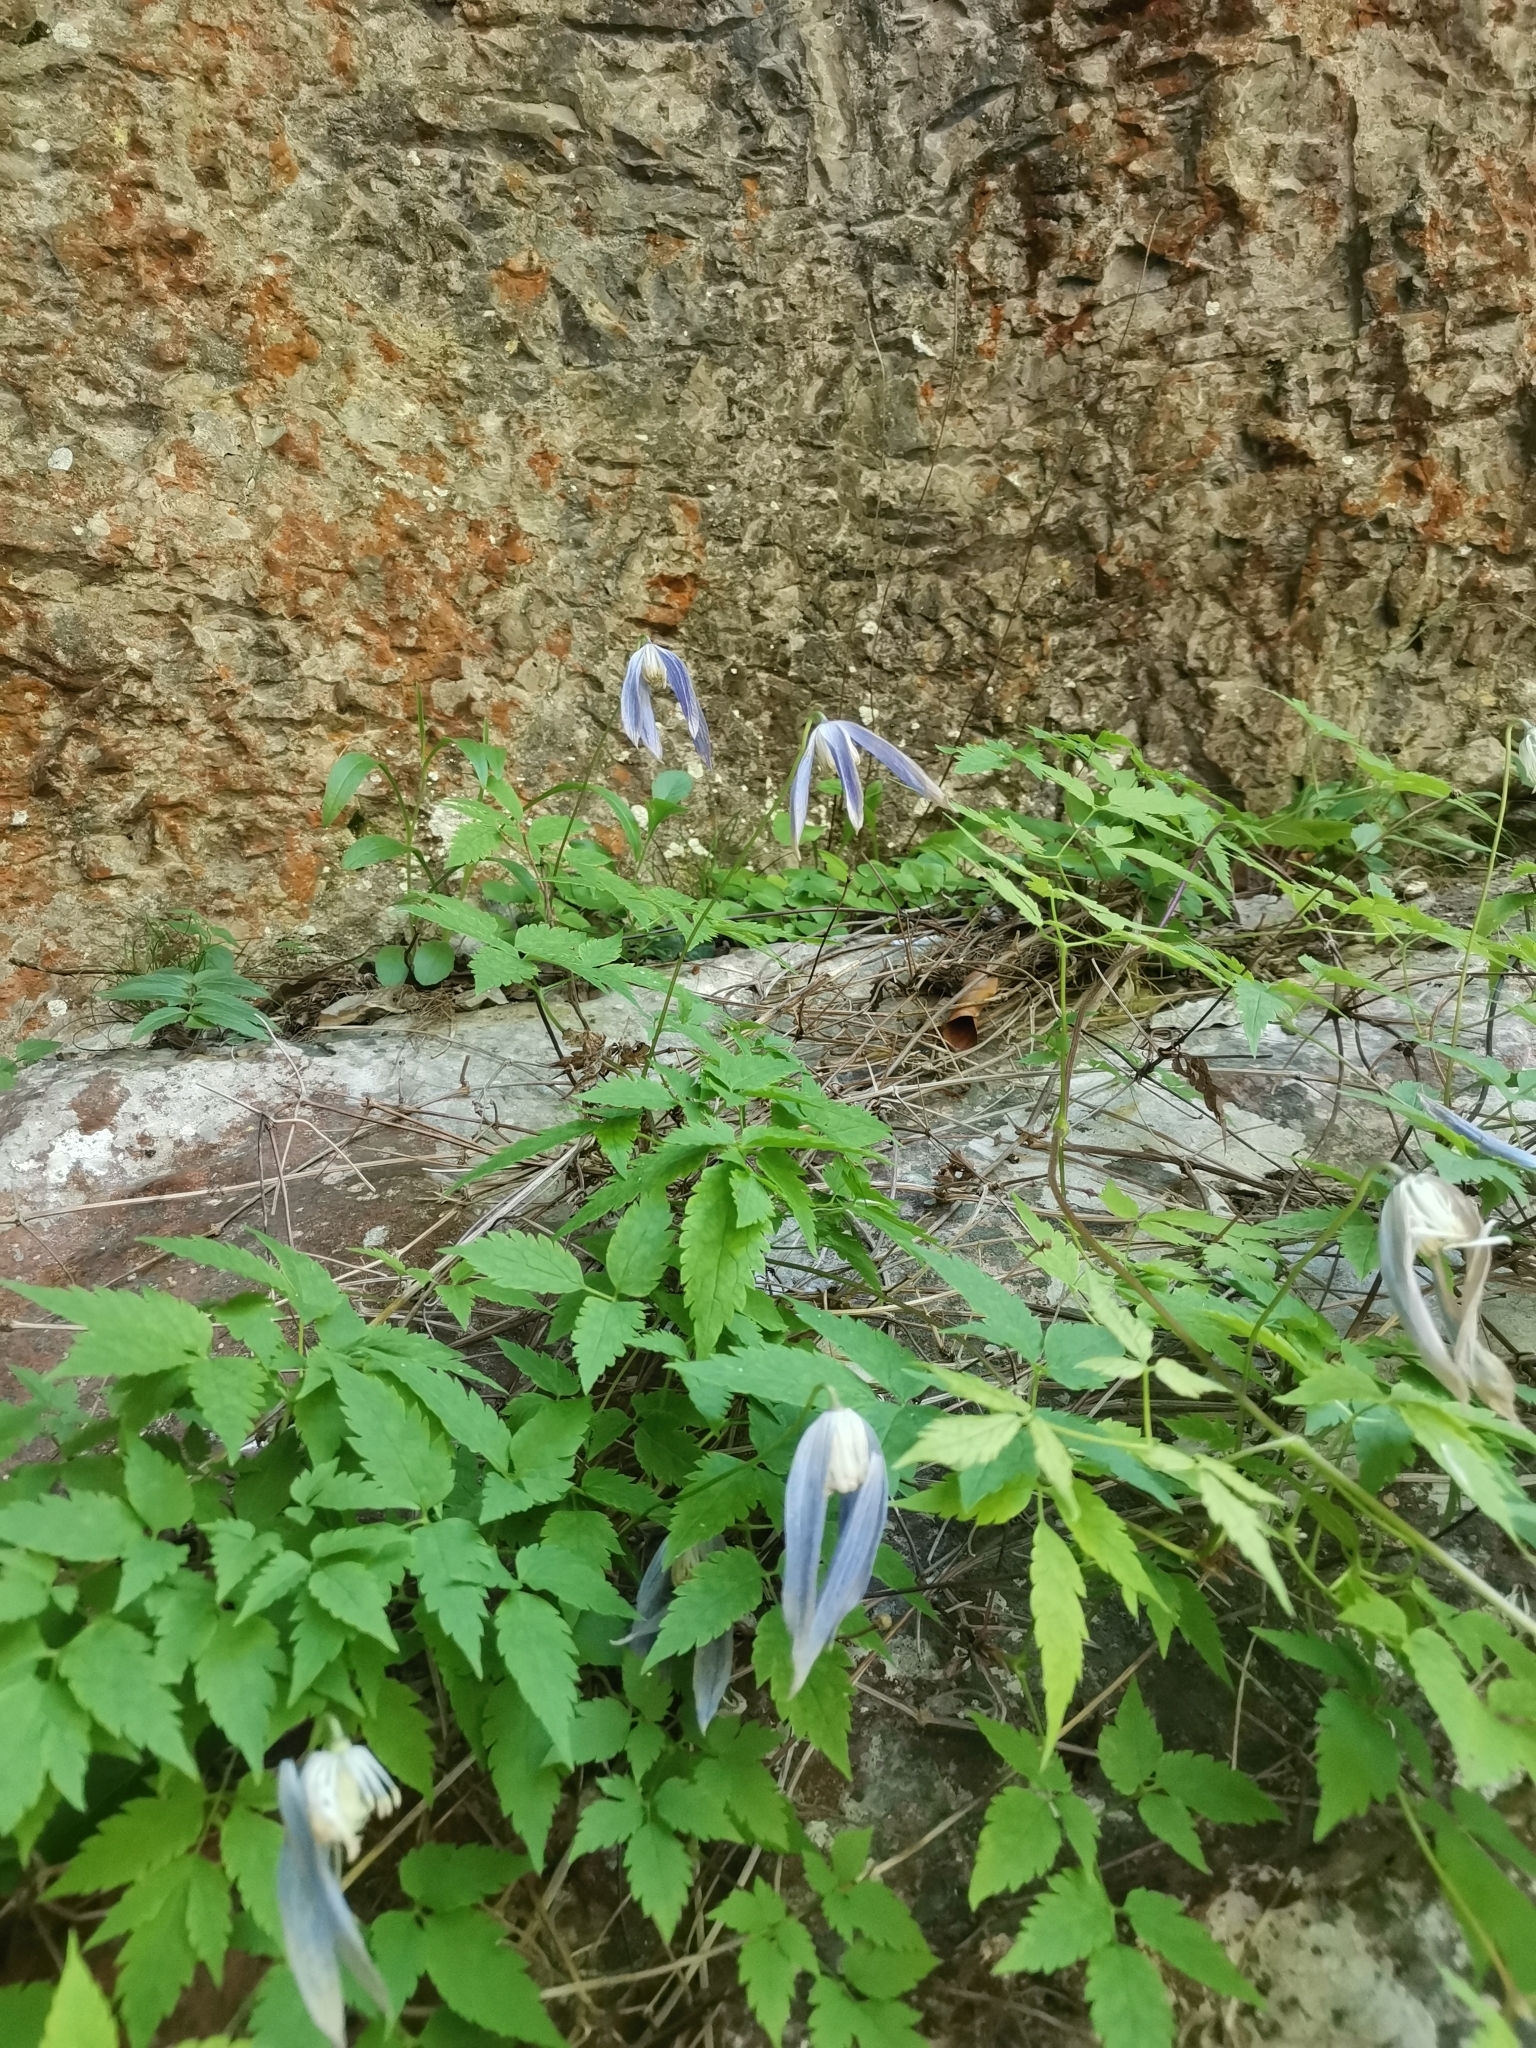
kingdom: Plantae
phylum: Tracheophyta
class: Magnoliopsida
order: Ranunculales
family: Ranunculaceae
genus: Clematis
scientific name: Clematis alpina
